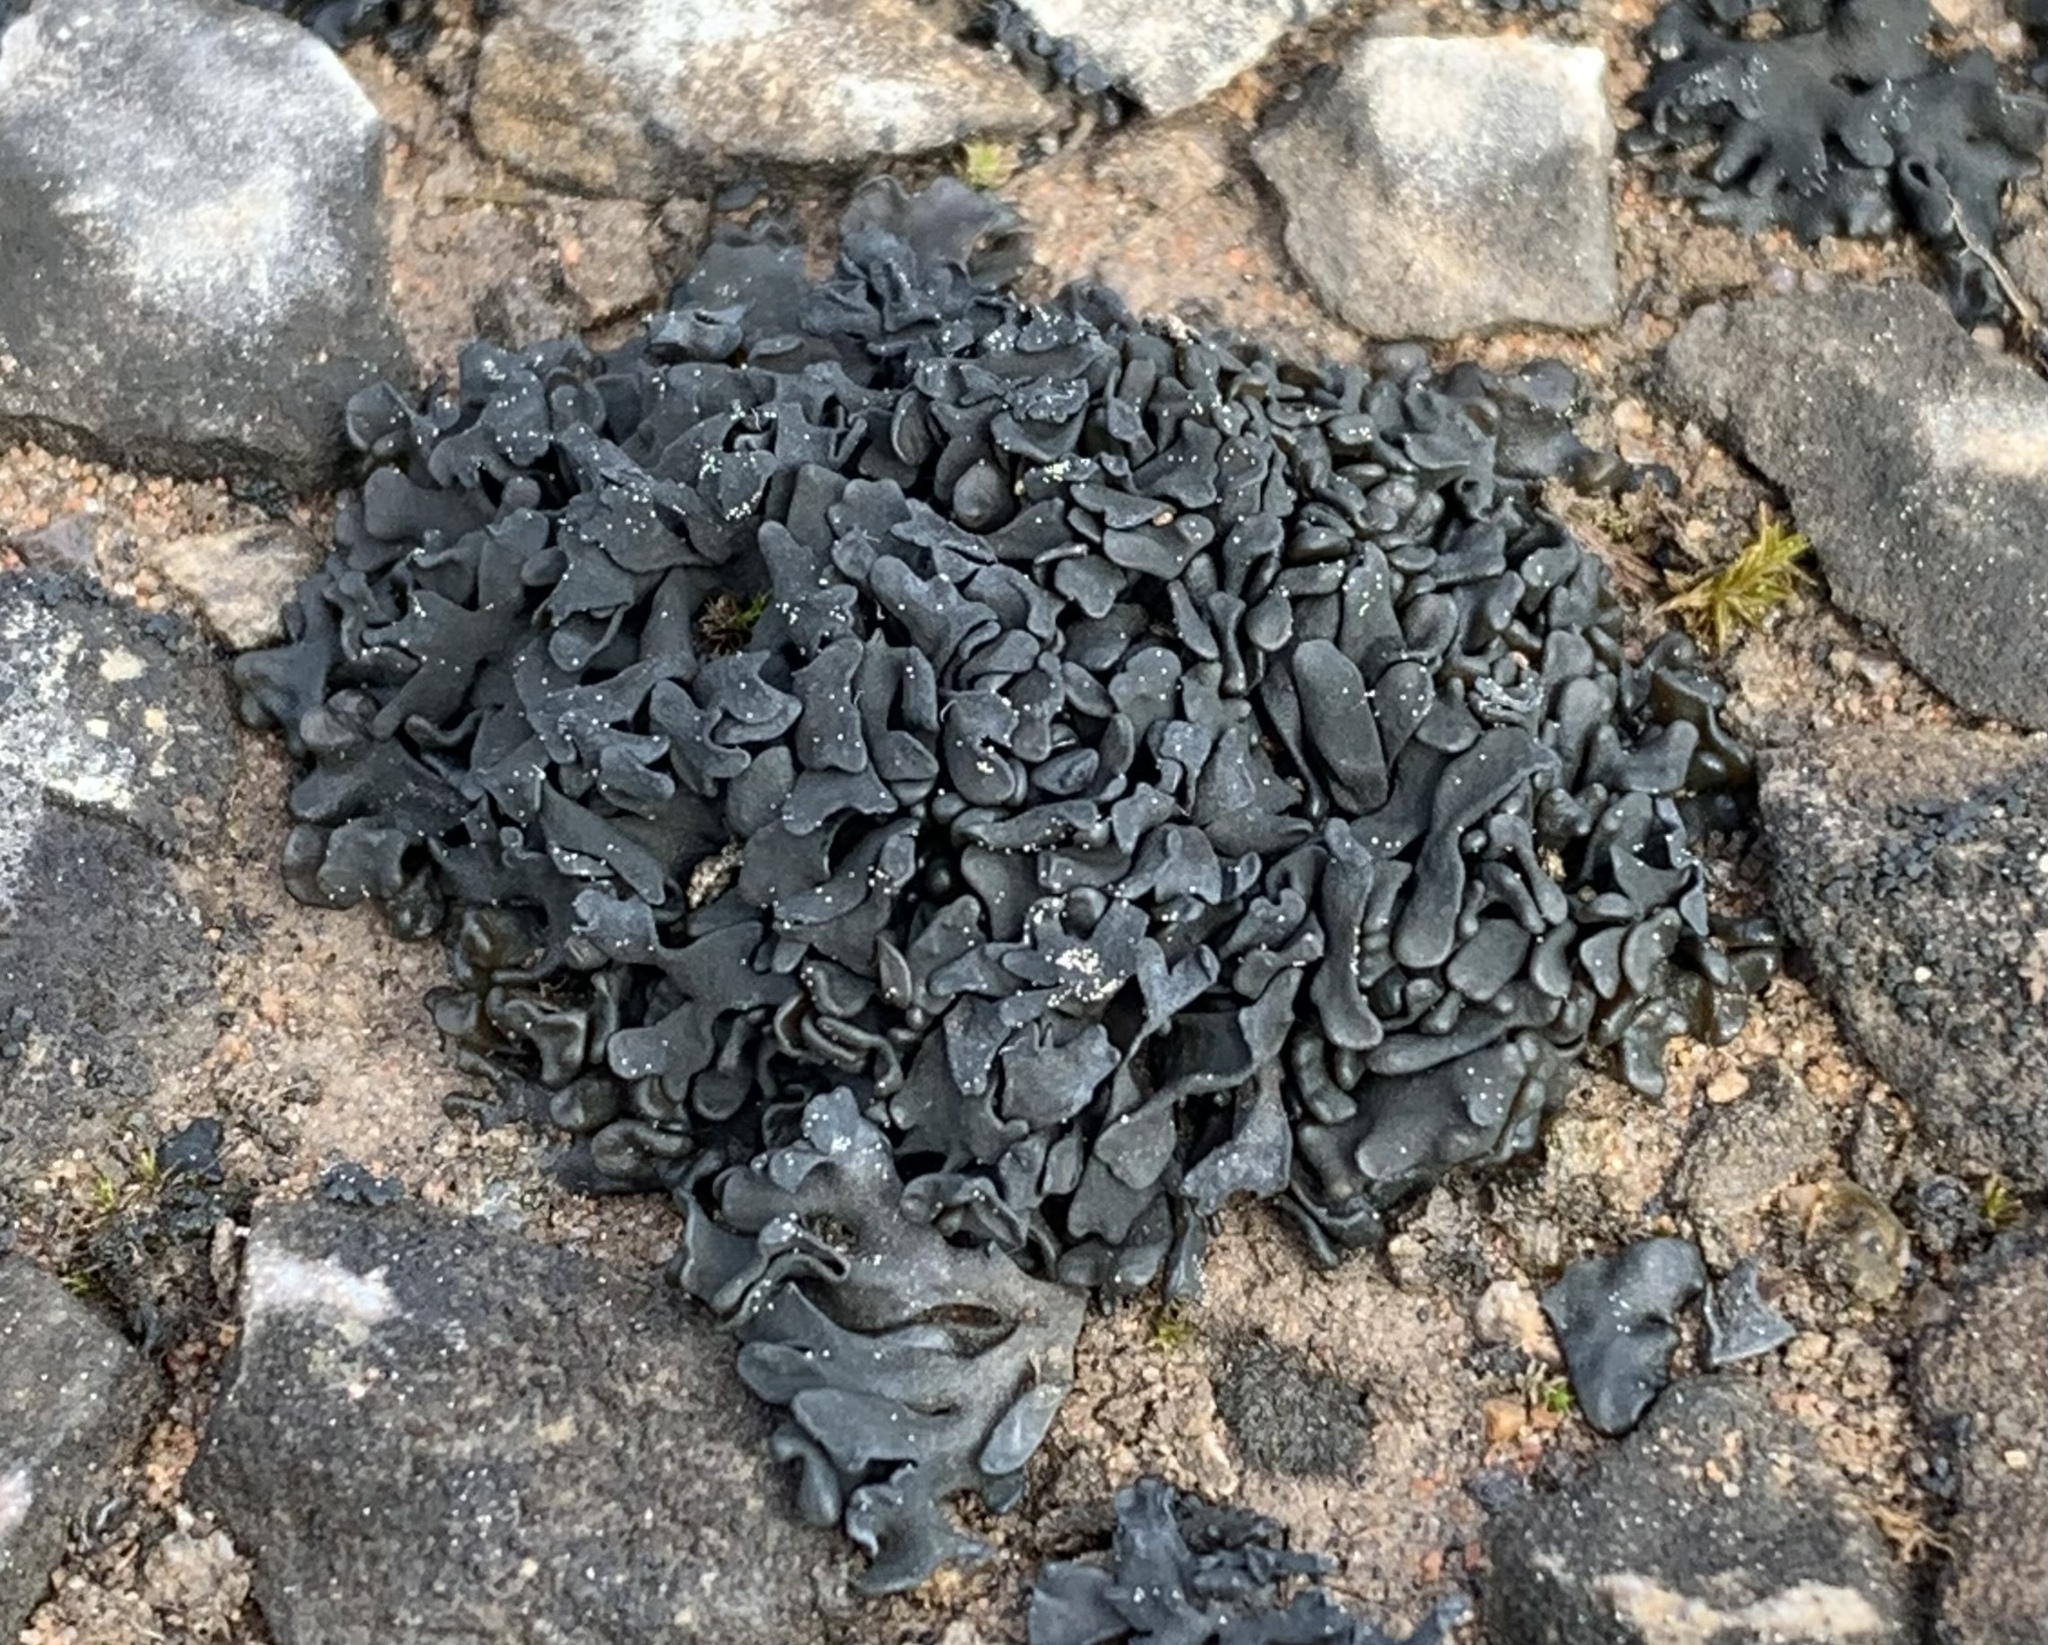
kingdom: Fungi
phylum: Ascomycota
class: Lichinomycetes
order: Lichinales
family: Lichinaceae
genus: Thyrea
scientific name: Thyrea confusa
